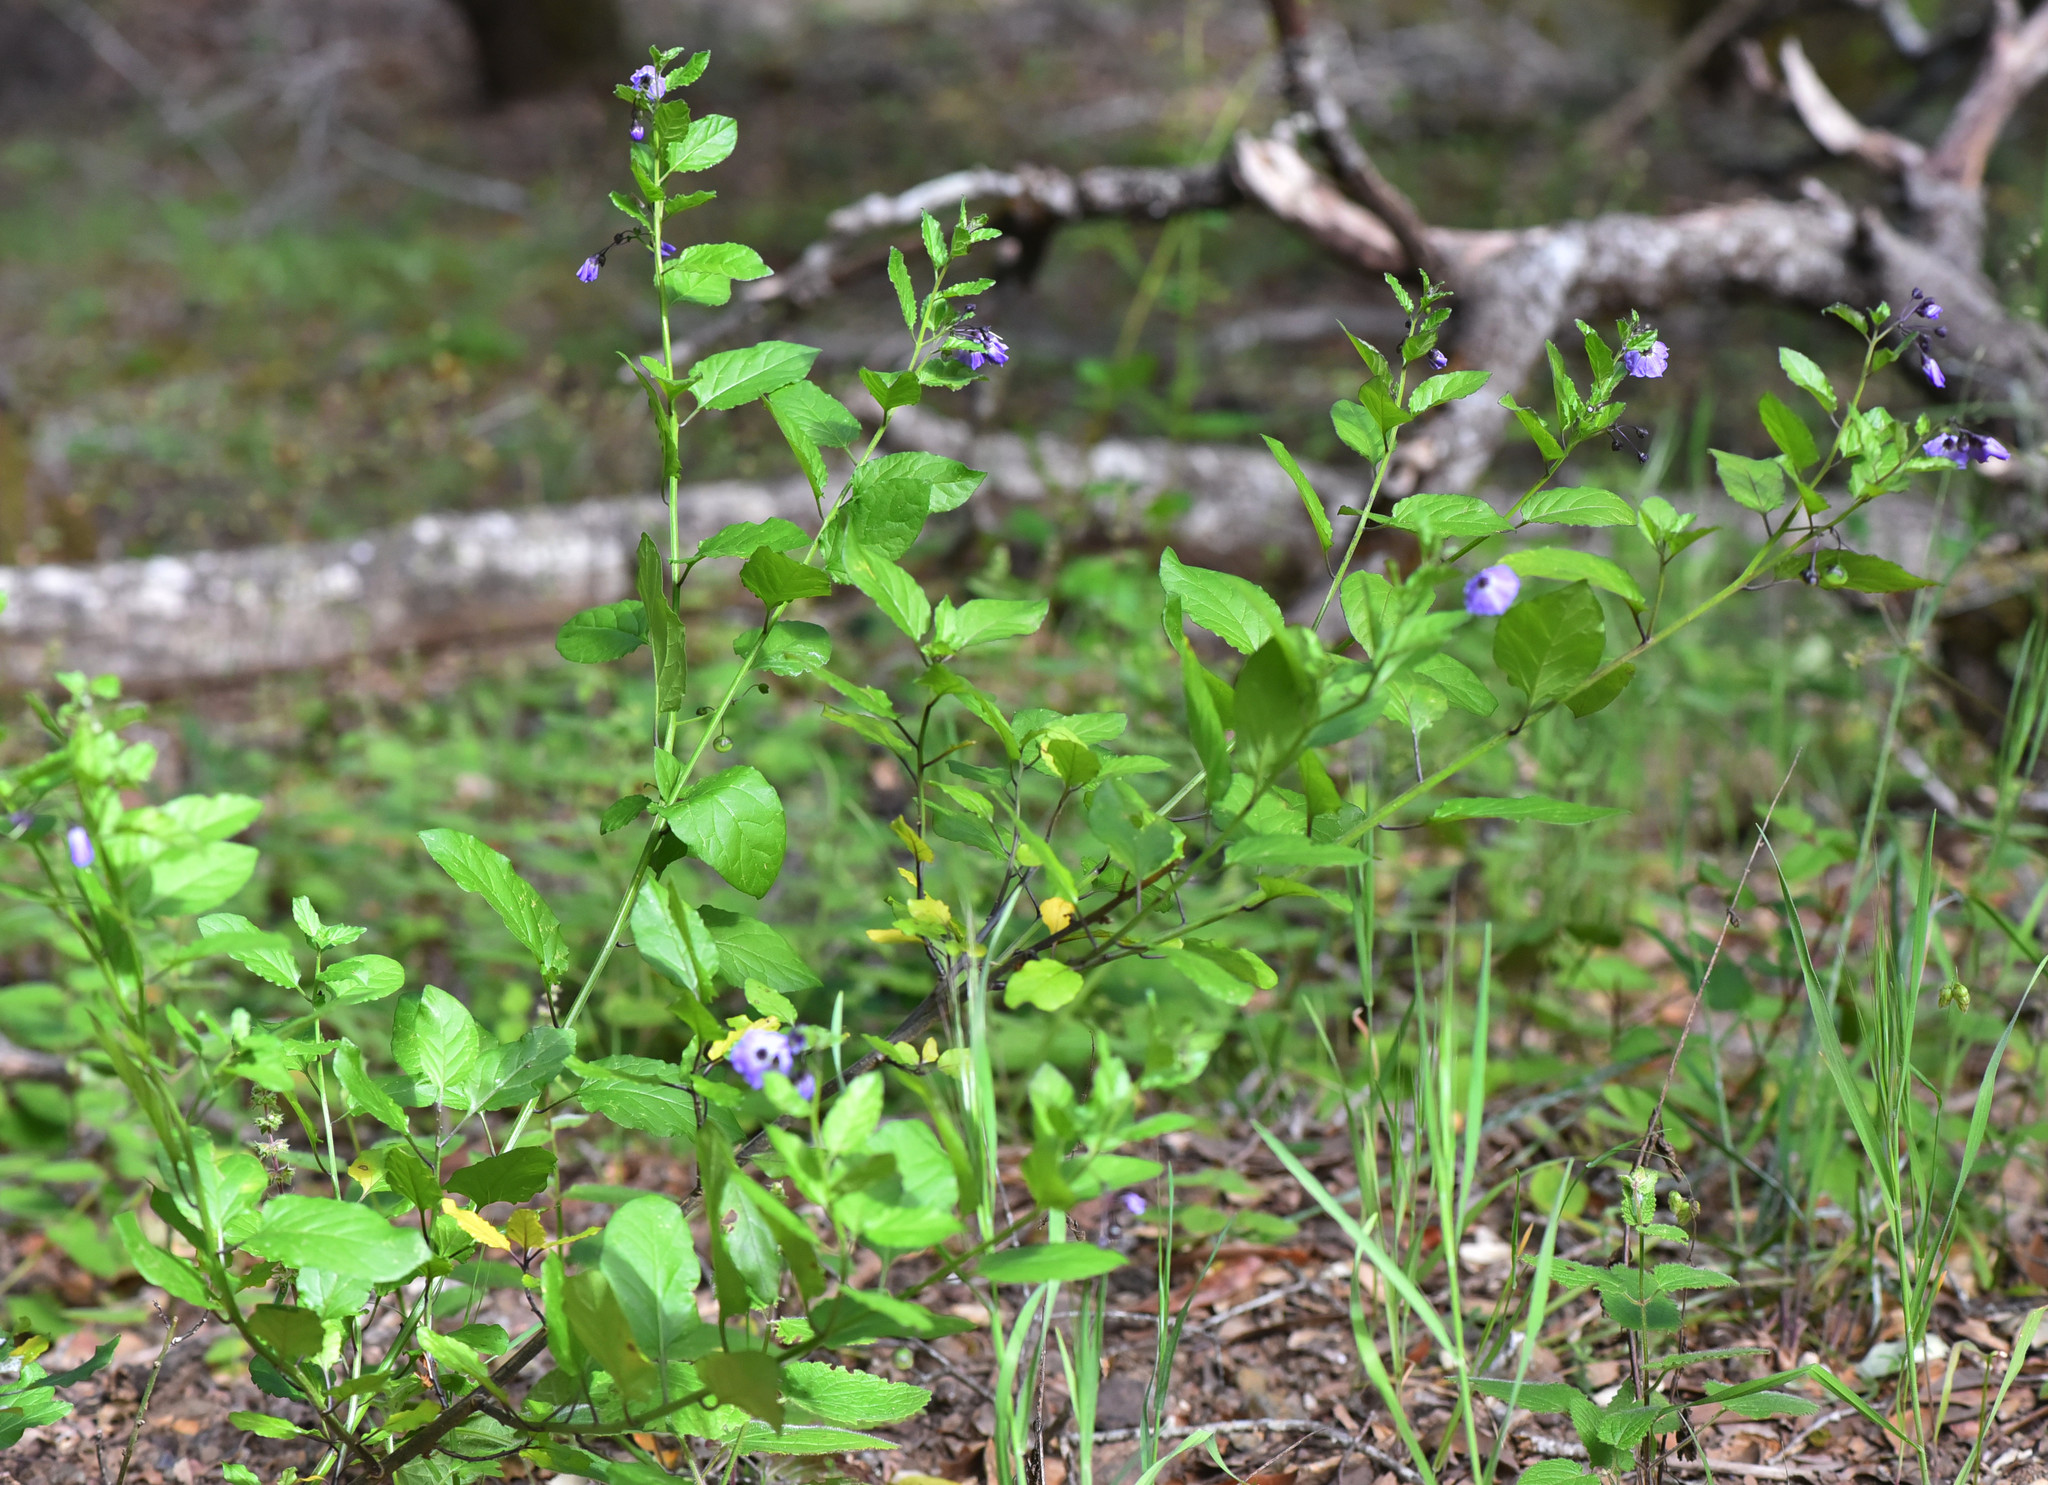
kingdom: Plantae
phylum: Tracheophyta
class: Magnoliopsida
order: Solanales
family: Solanaceae
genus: Solanum
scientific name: Solanum umbelliferum
